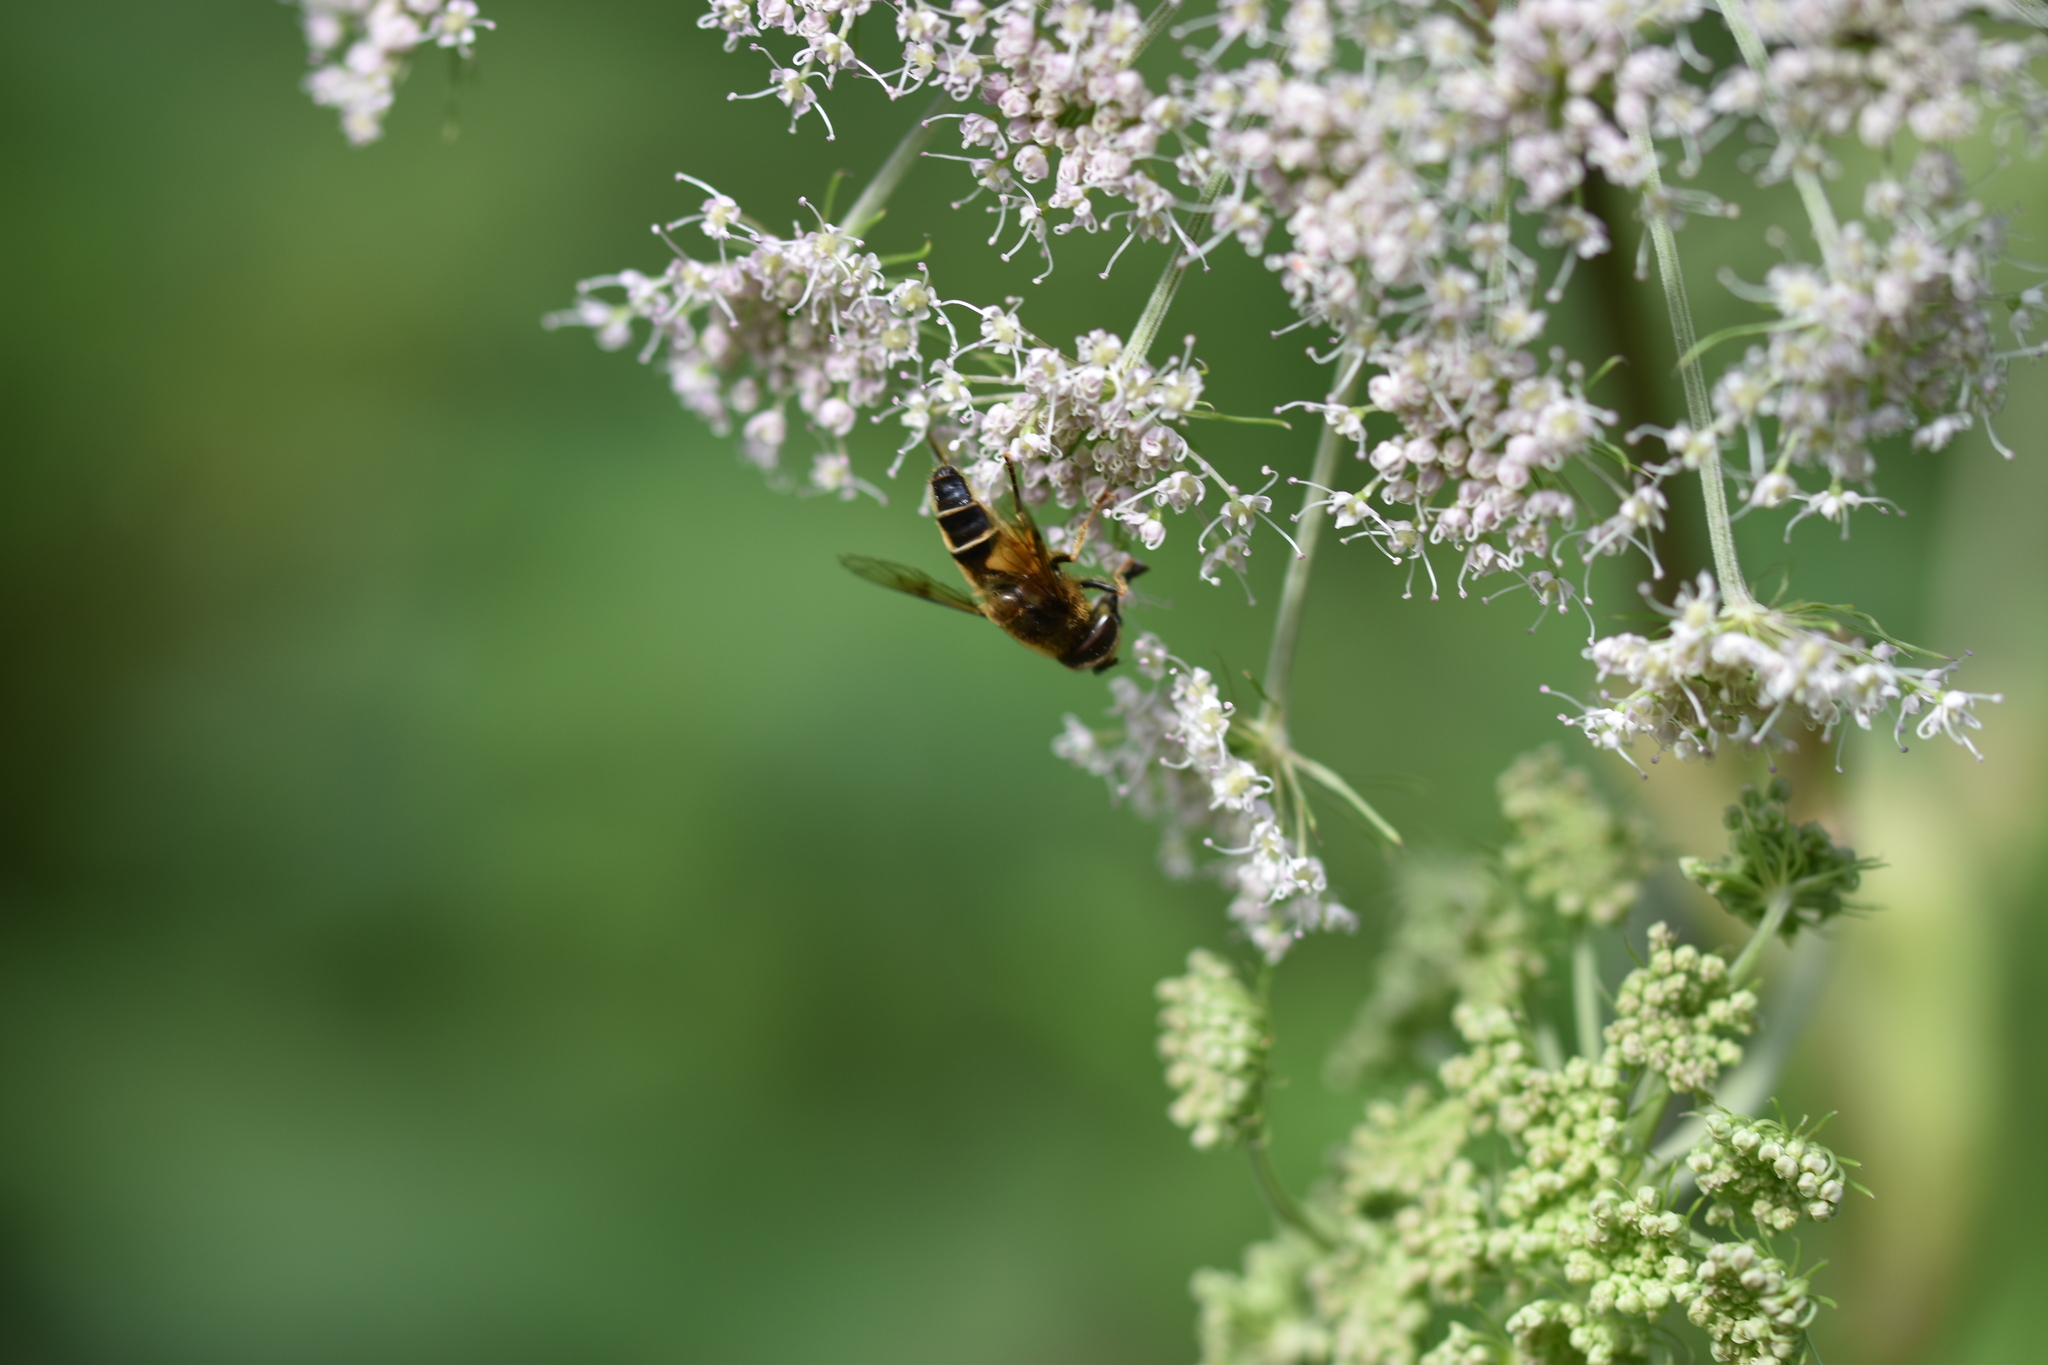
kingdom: Animalia
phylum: Arthropoda
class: Insecta
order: Diptera
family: Syrphidae
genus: Eristalis
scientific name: Eristalis pertinax
